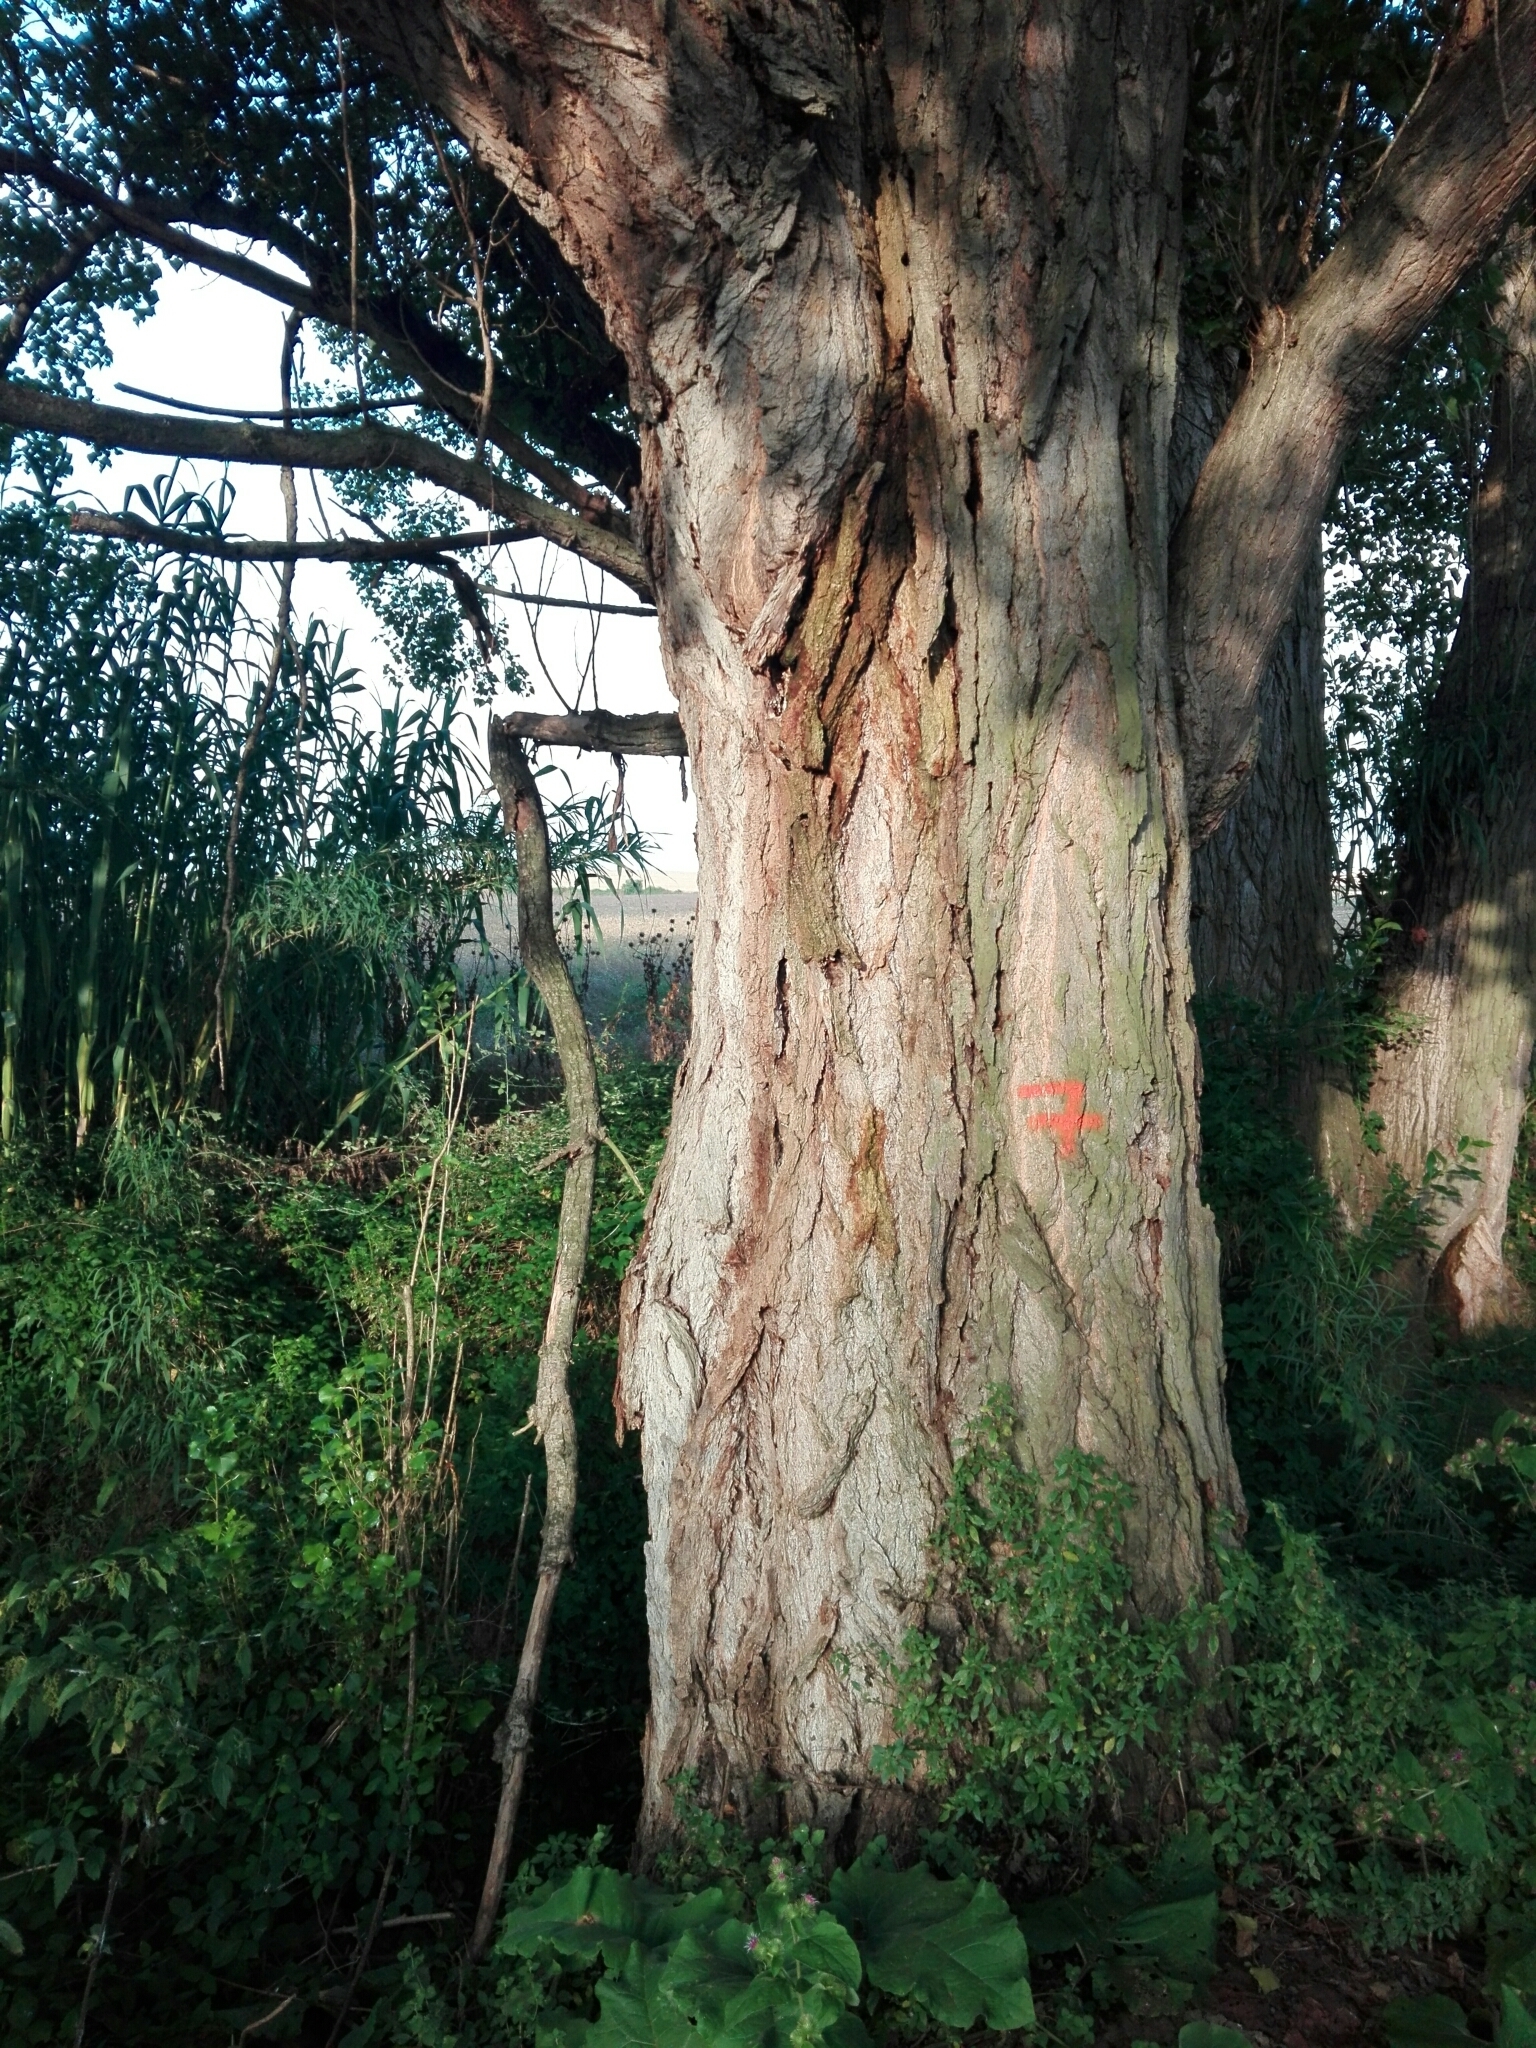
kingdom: Plantae
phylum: Tracheophyta
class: Magnoliopsida
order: Malpighiales
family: Salicaceae
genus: Populus
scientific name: Populus nigra
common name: Black poplar
